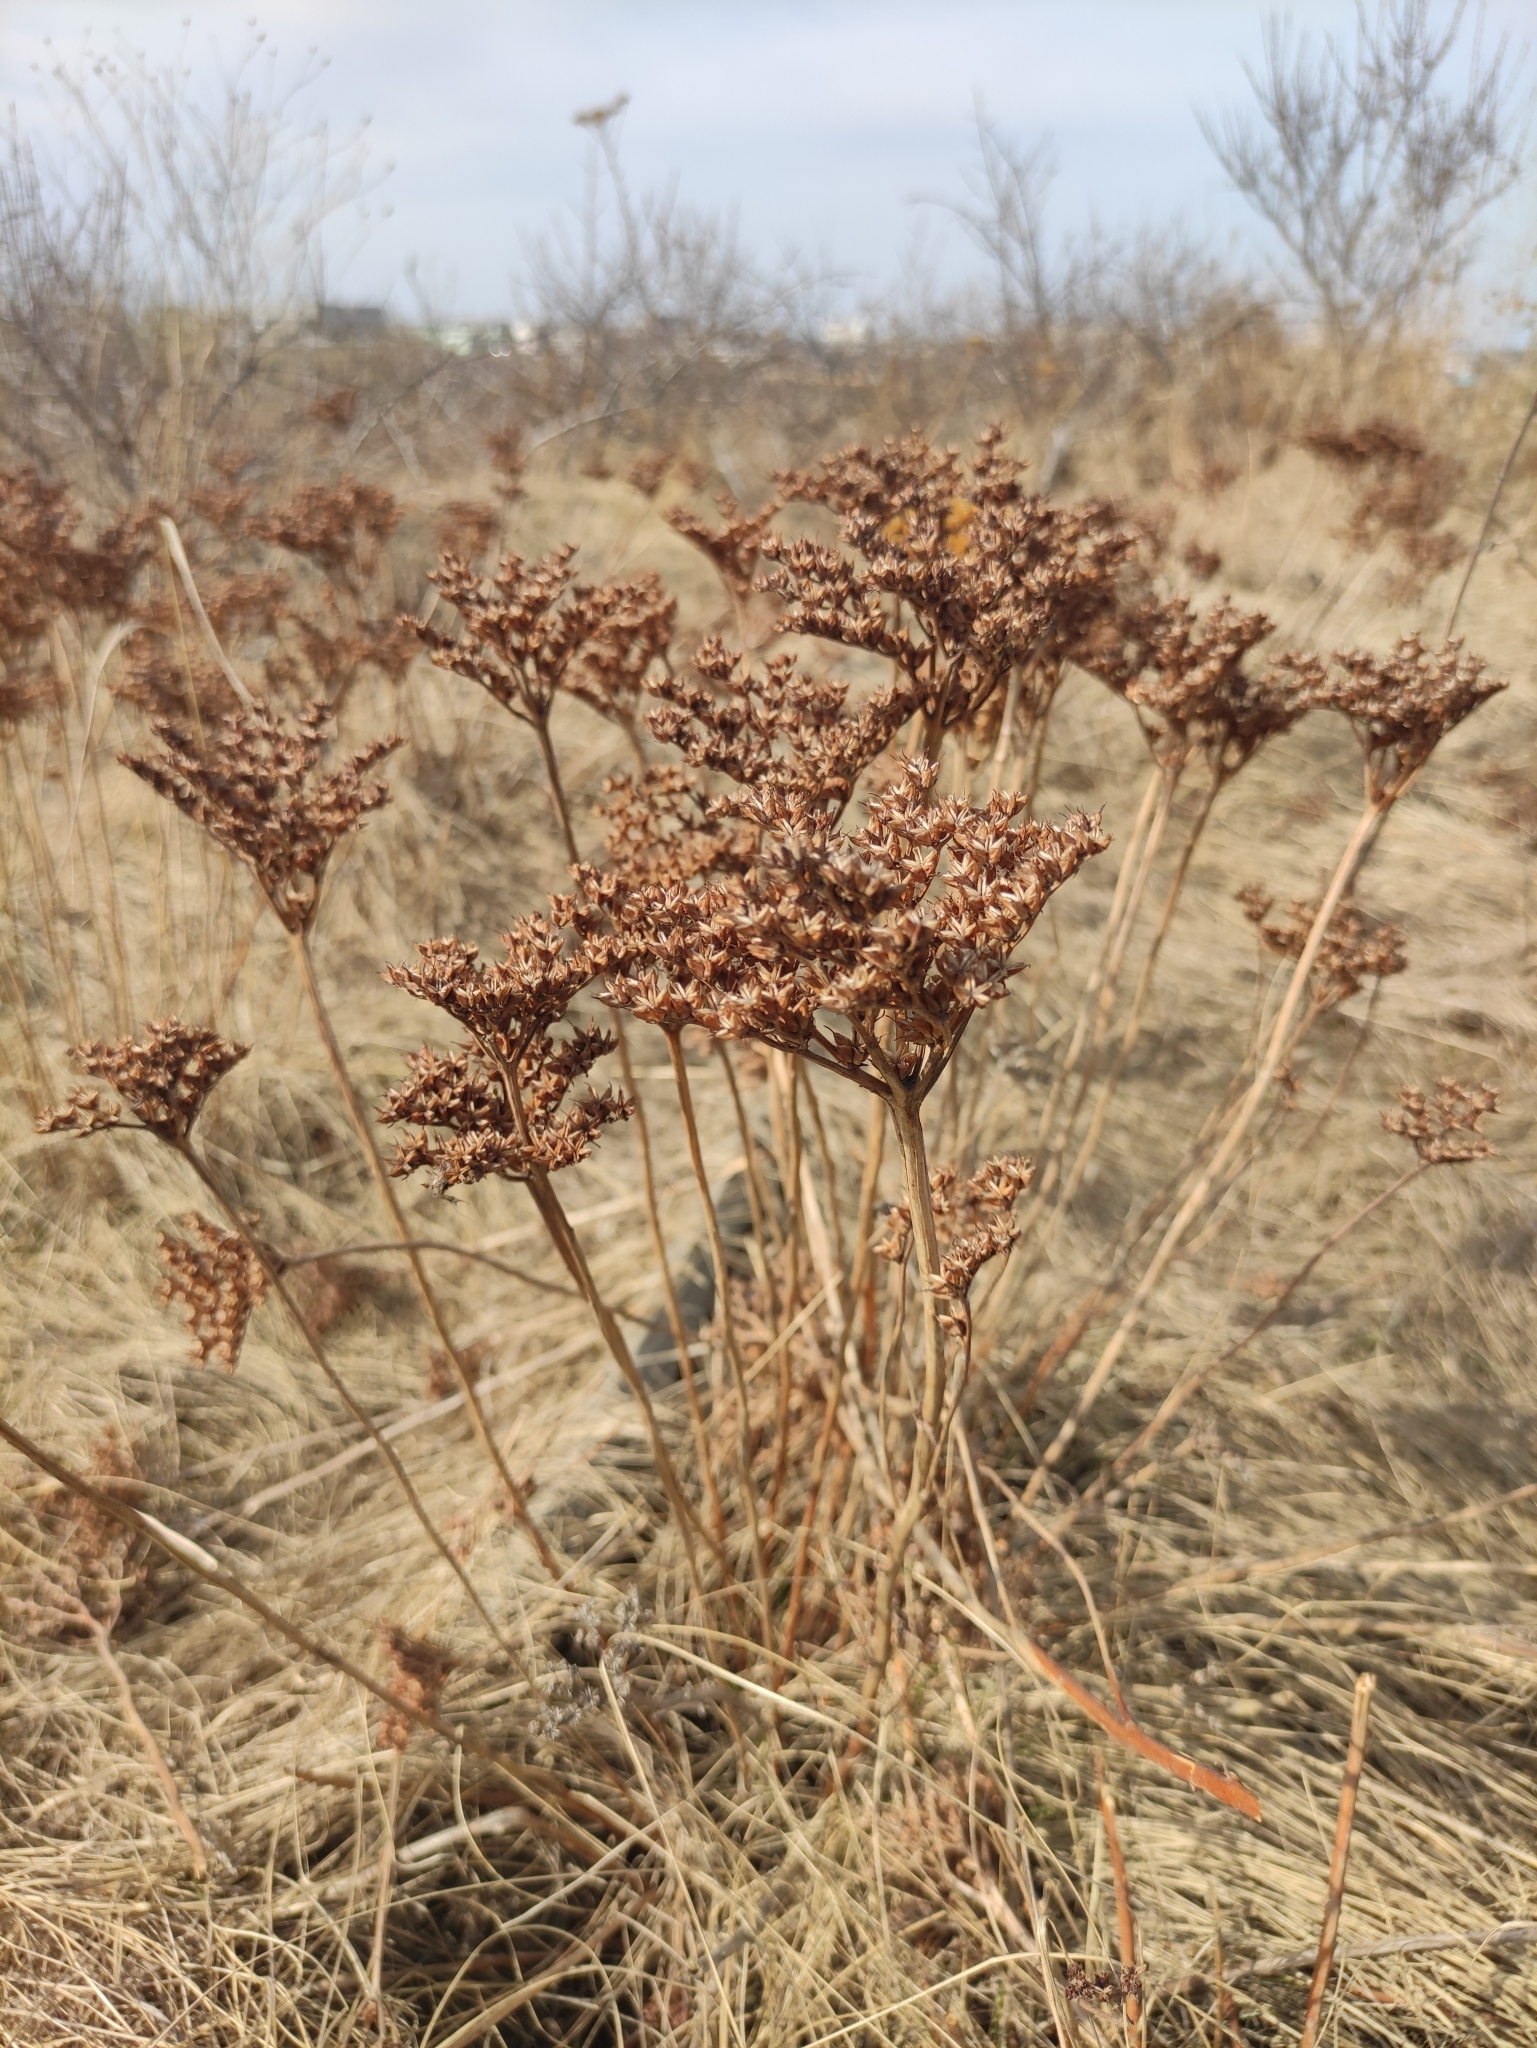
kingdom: Plantae
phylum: Tracheophyta
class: Magnoliopsida
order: Saxifragales
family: Crassulaceae
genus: Phedimus
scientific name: Phedimus aizoon
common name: Orpin aizoon
